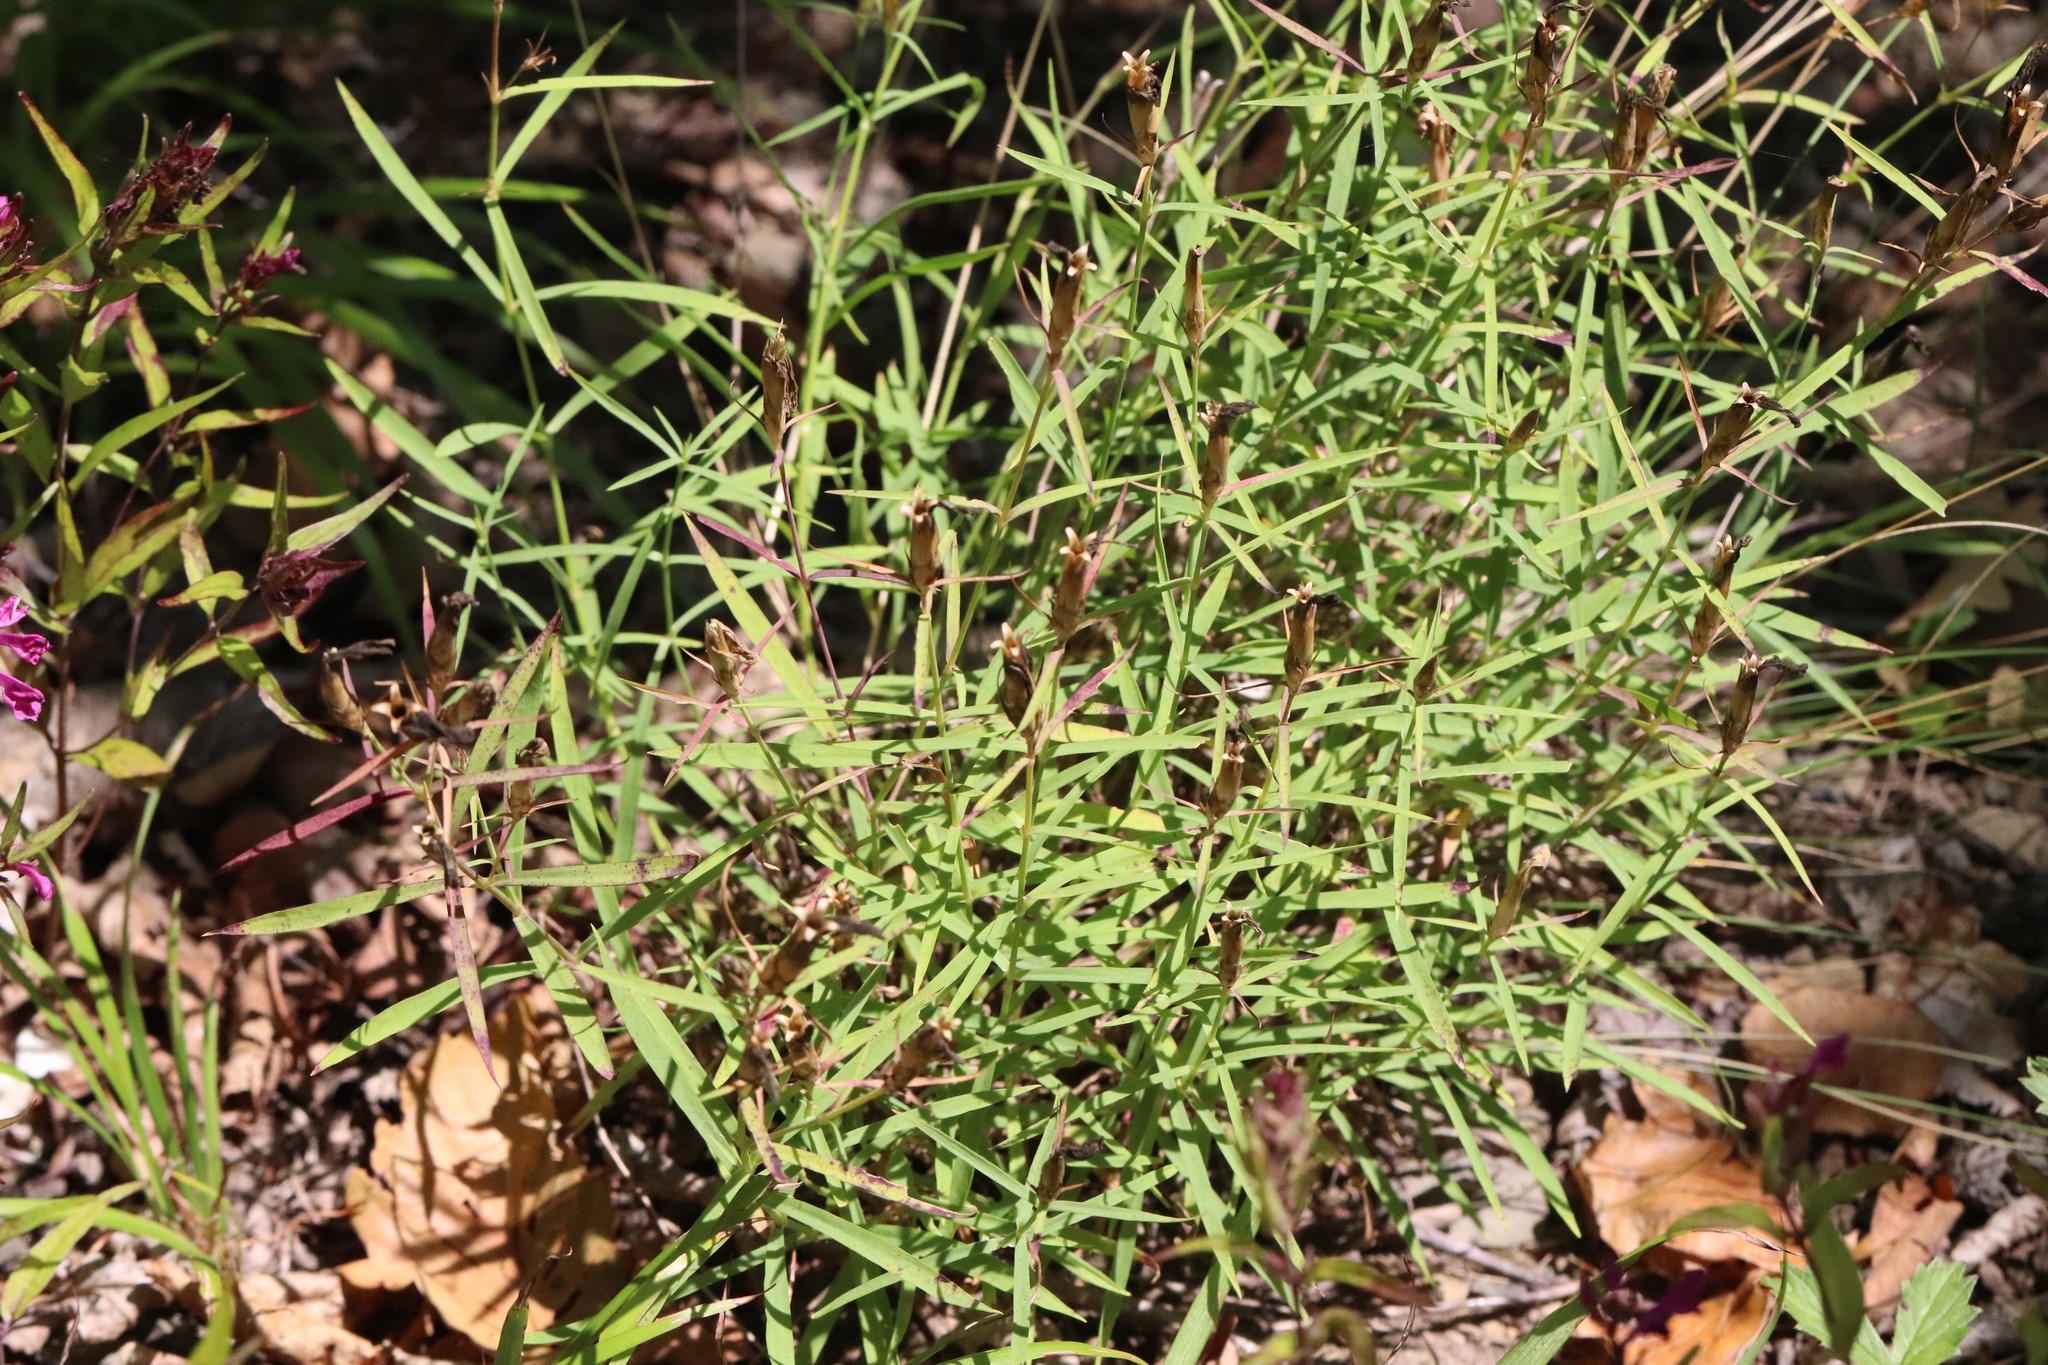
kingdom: Plantae
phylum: Tracheophyta
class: Magnoliopsida
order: Caryophyllales
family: Caryophyllaceae
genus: Dianthus
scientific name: Dianthus chinensis
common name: Rainbow pink
